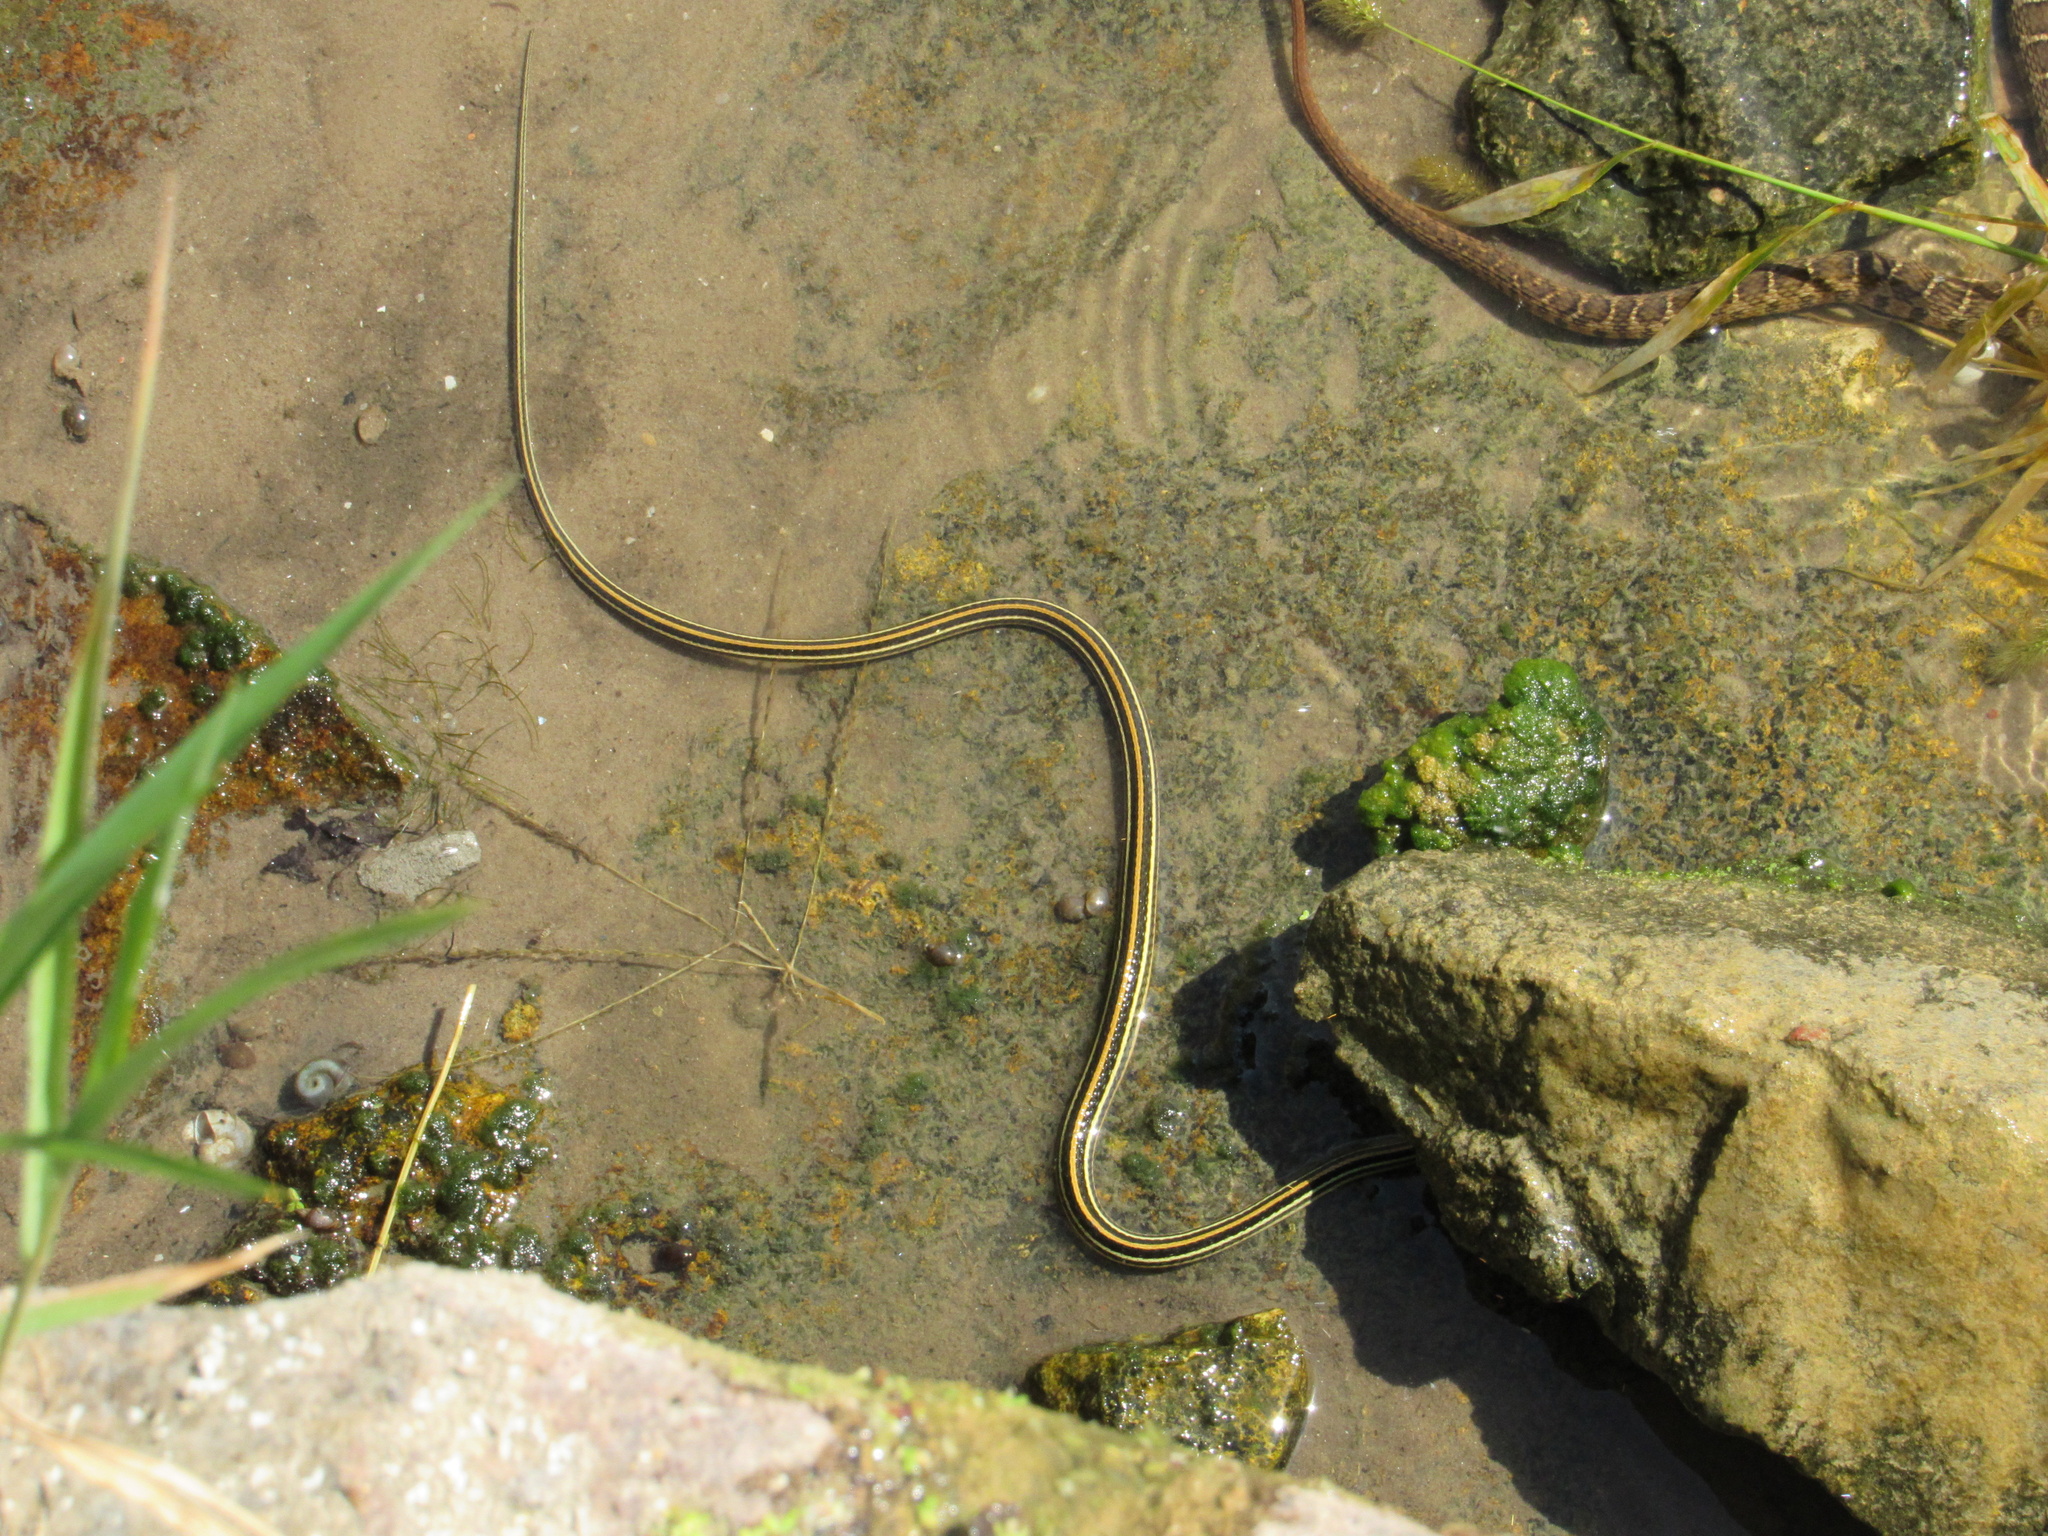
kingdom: Animalia
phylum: Chordata
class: Squamata
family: Colubridae
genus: Thamnophis
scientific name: Thamnophis proximus
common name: Western ribbon snake
